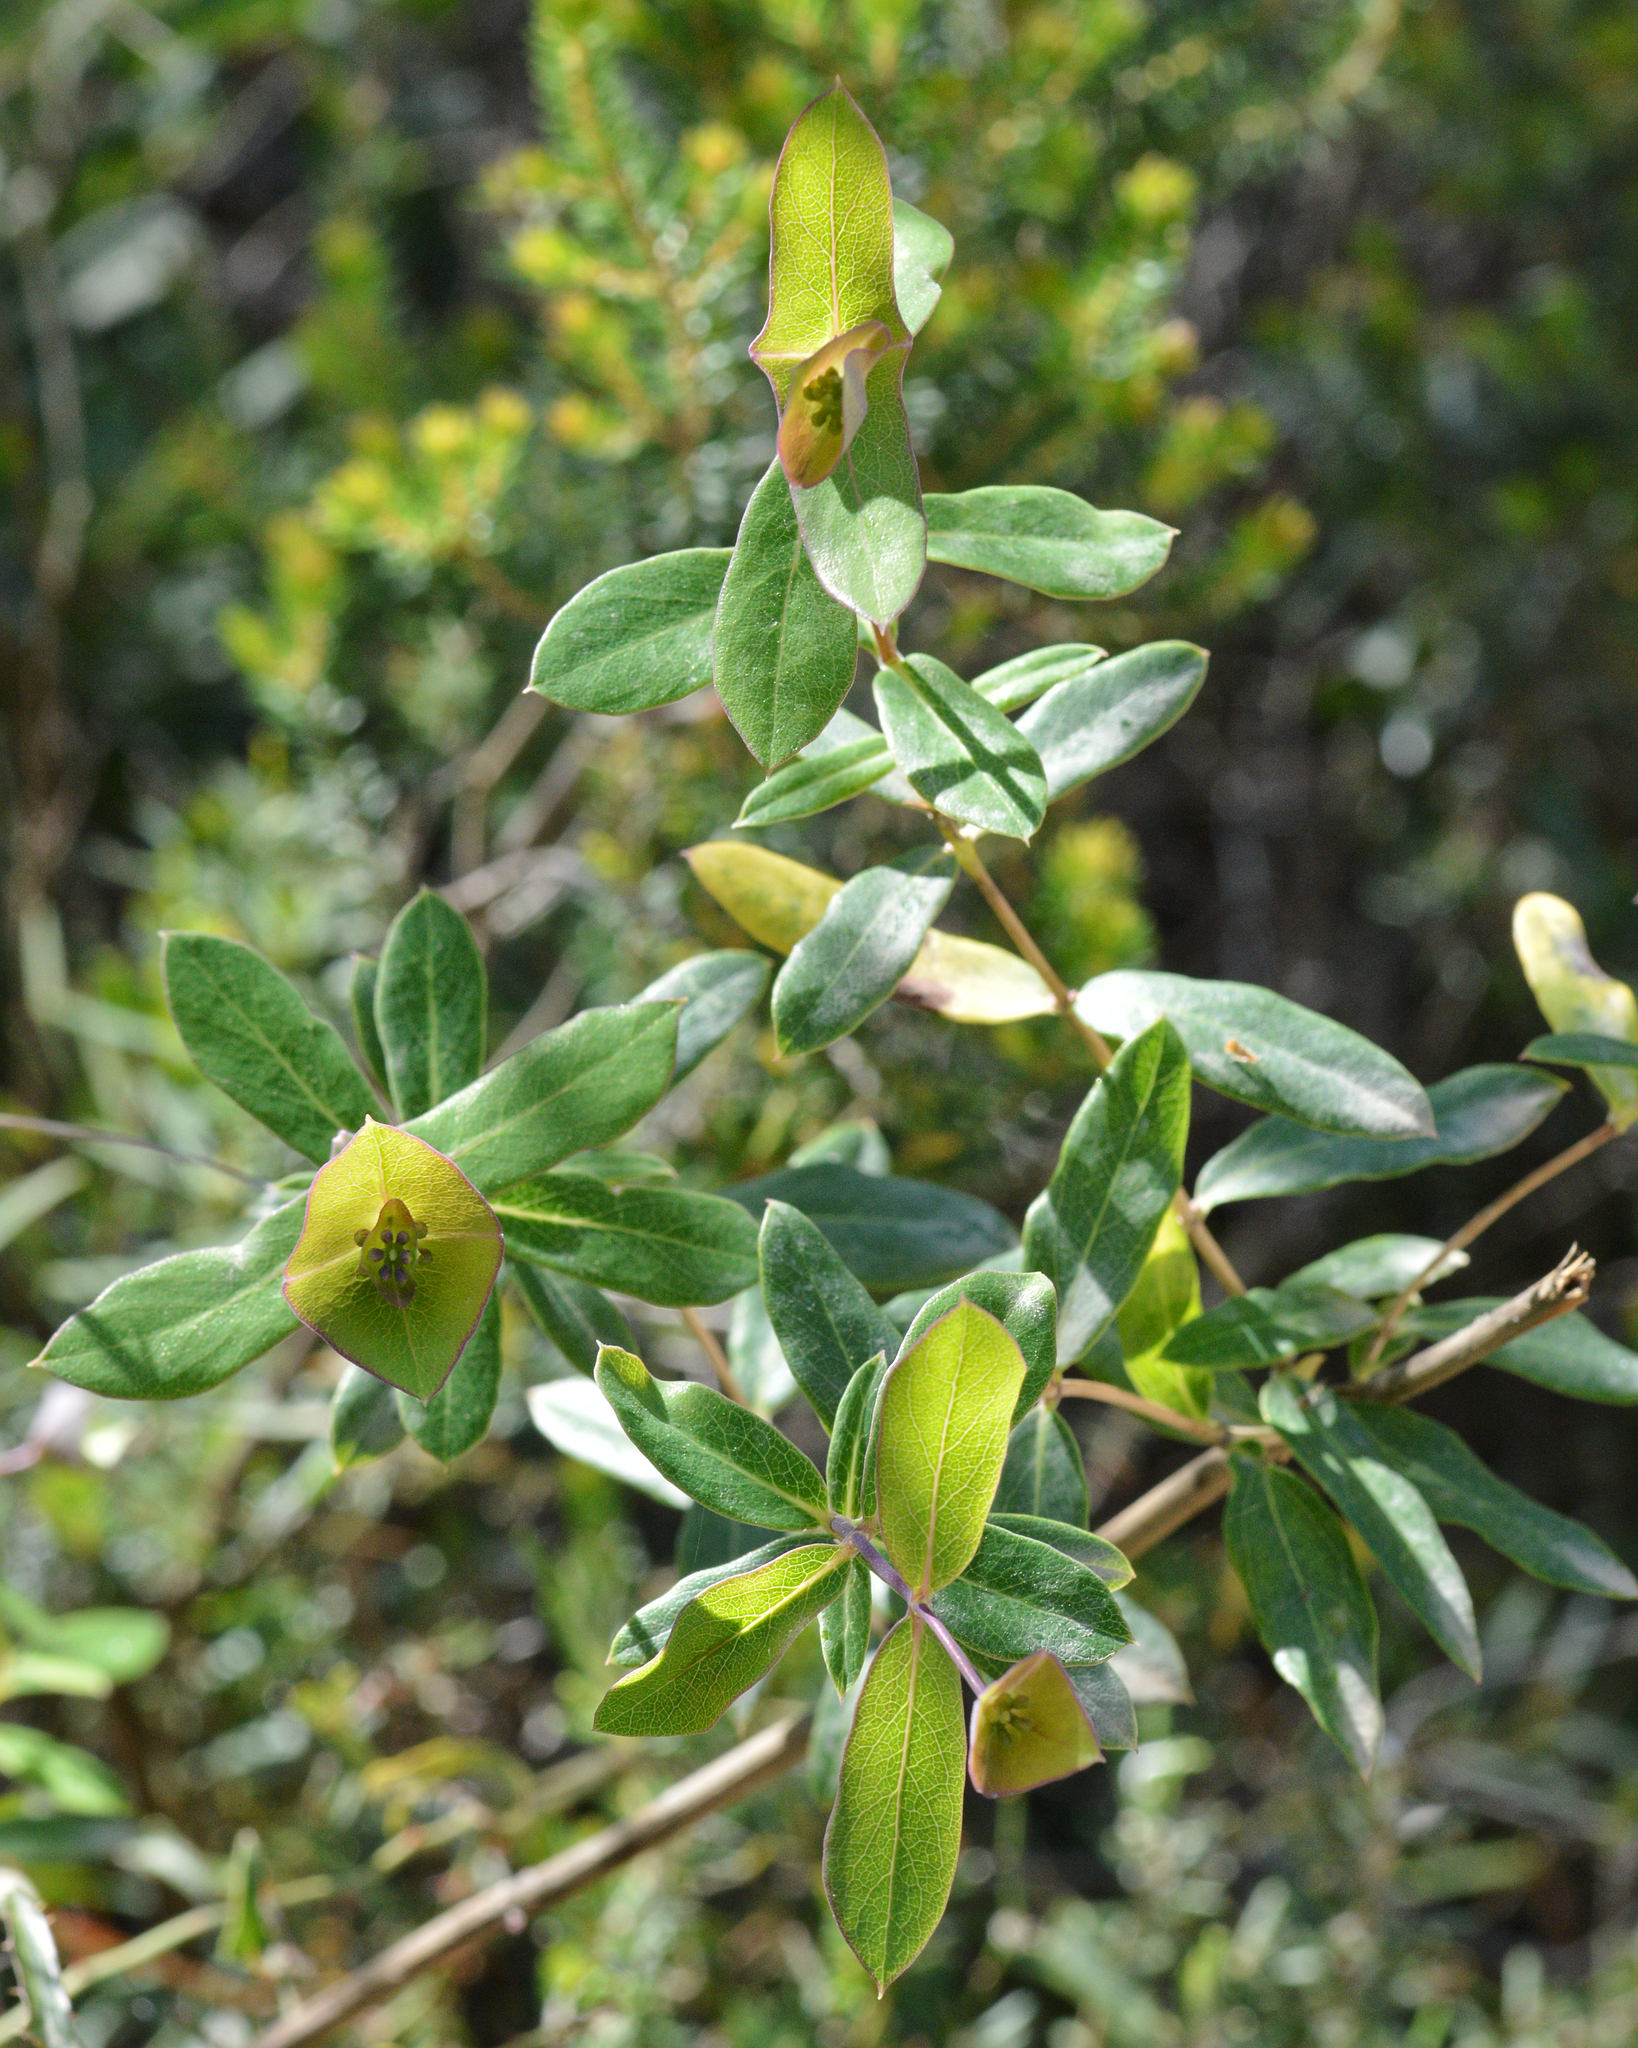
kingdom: Plantae
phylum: Tracheophyta
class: Magnoliopsida
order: Dipsacales
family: Caprifoliaceae
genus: Lonicera
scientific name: Lonicera implexa
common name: Minorca honeysuckle
